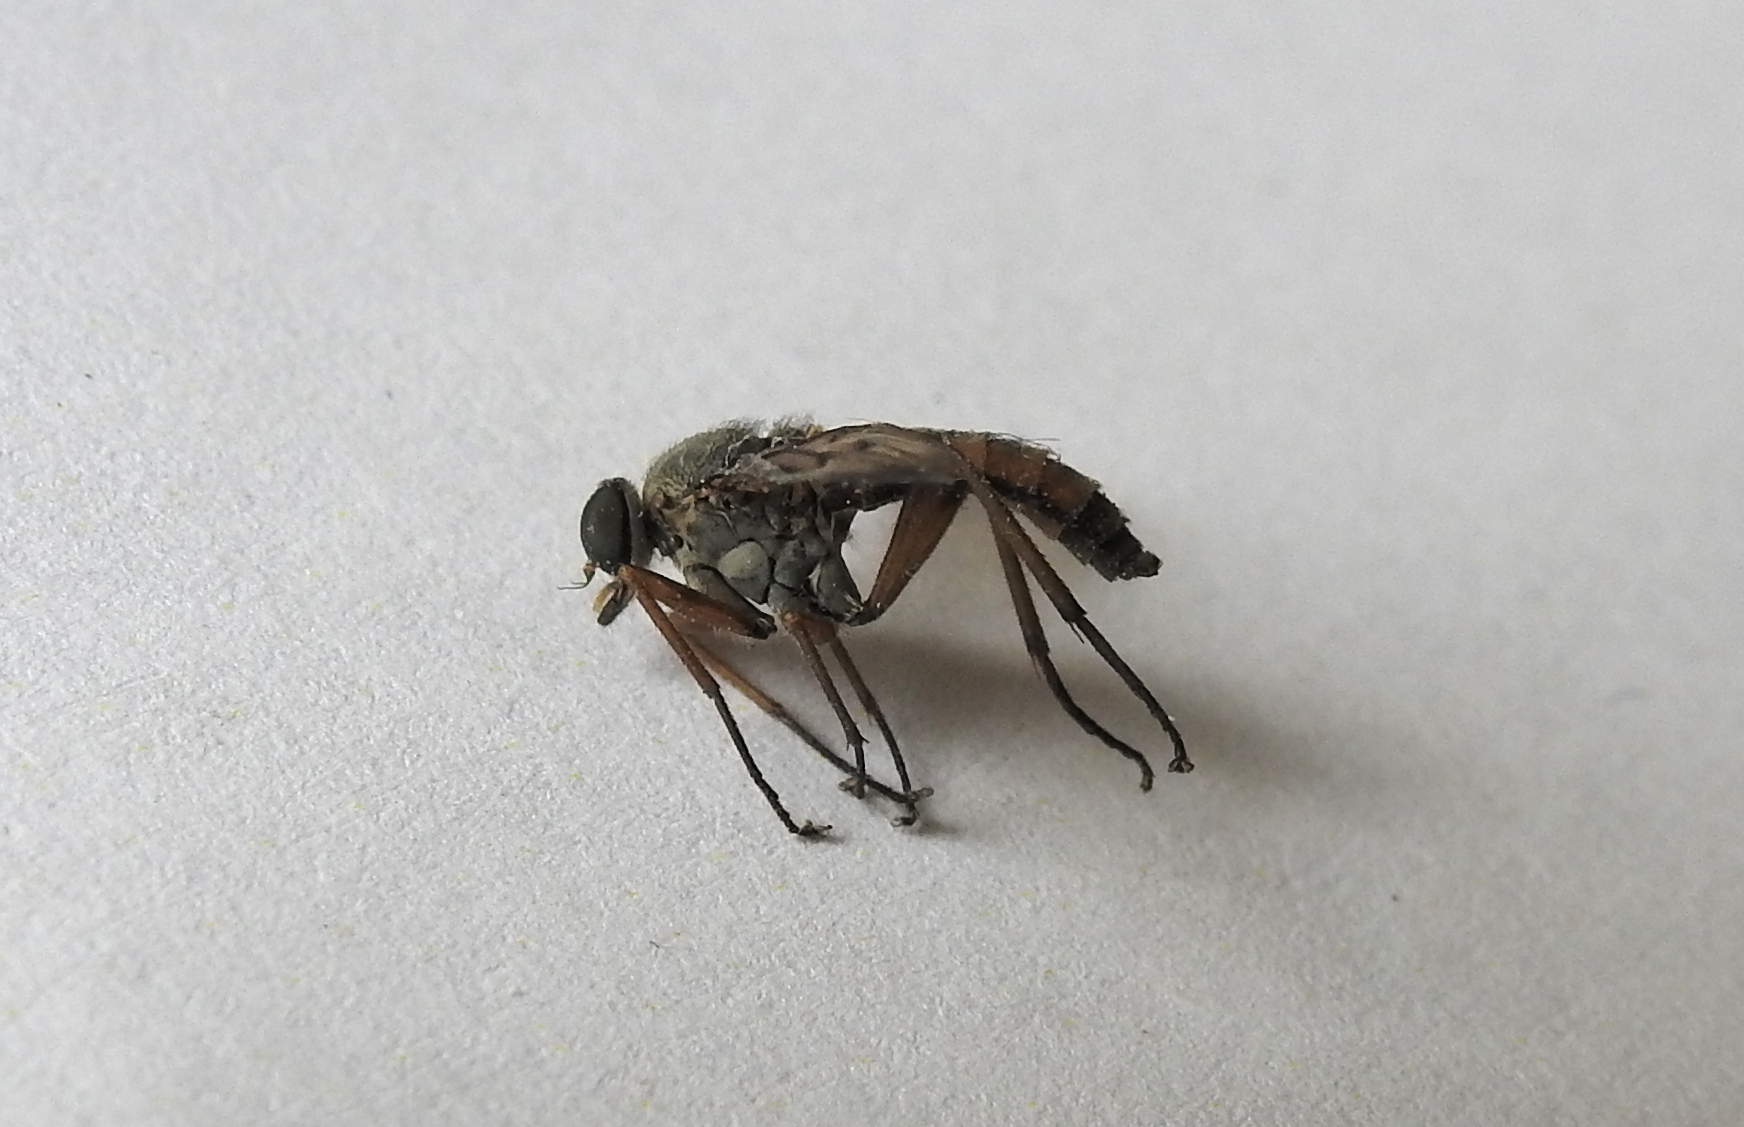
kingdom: Animalia
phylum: Arthropoda
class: Insecta
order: Diptera
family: Rhagionidae
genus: Rhagio
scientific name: Rhagio scolopacea
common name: Downlooker snipefly
